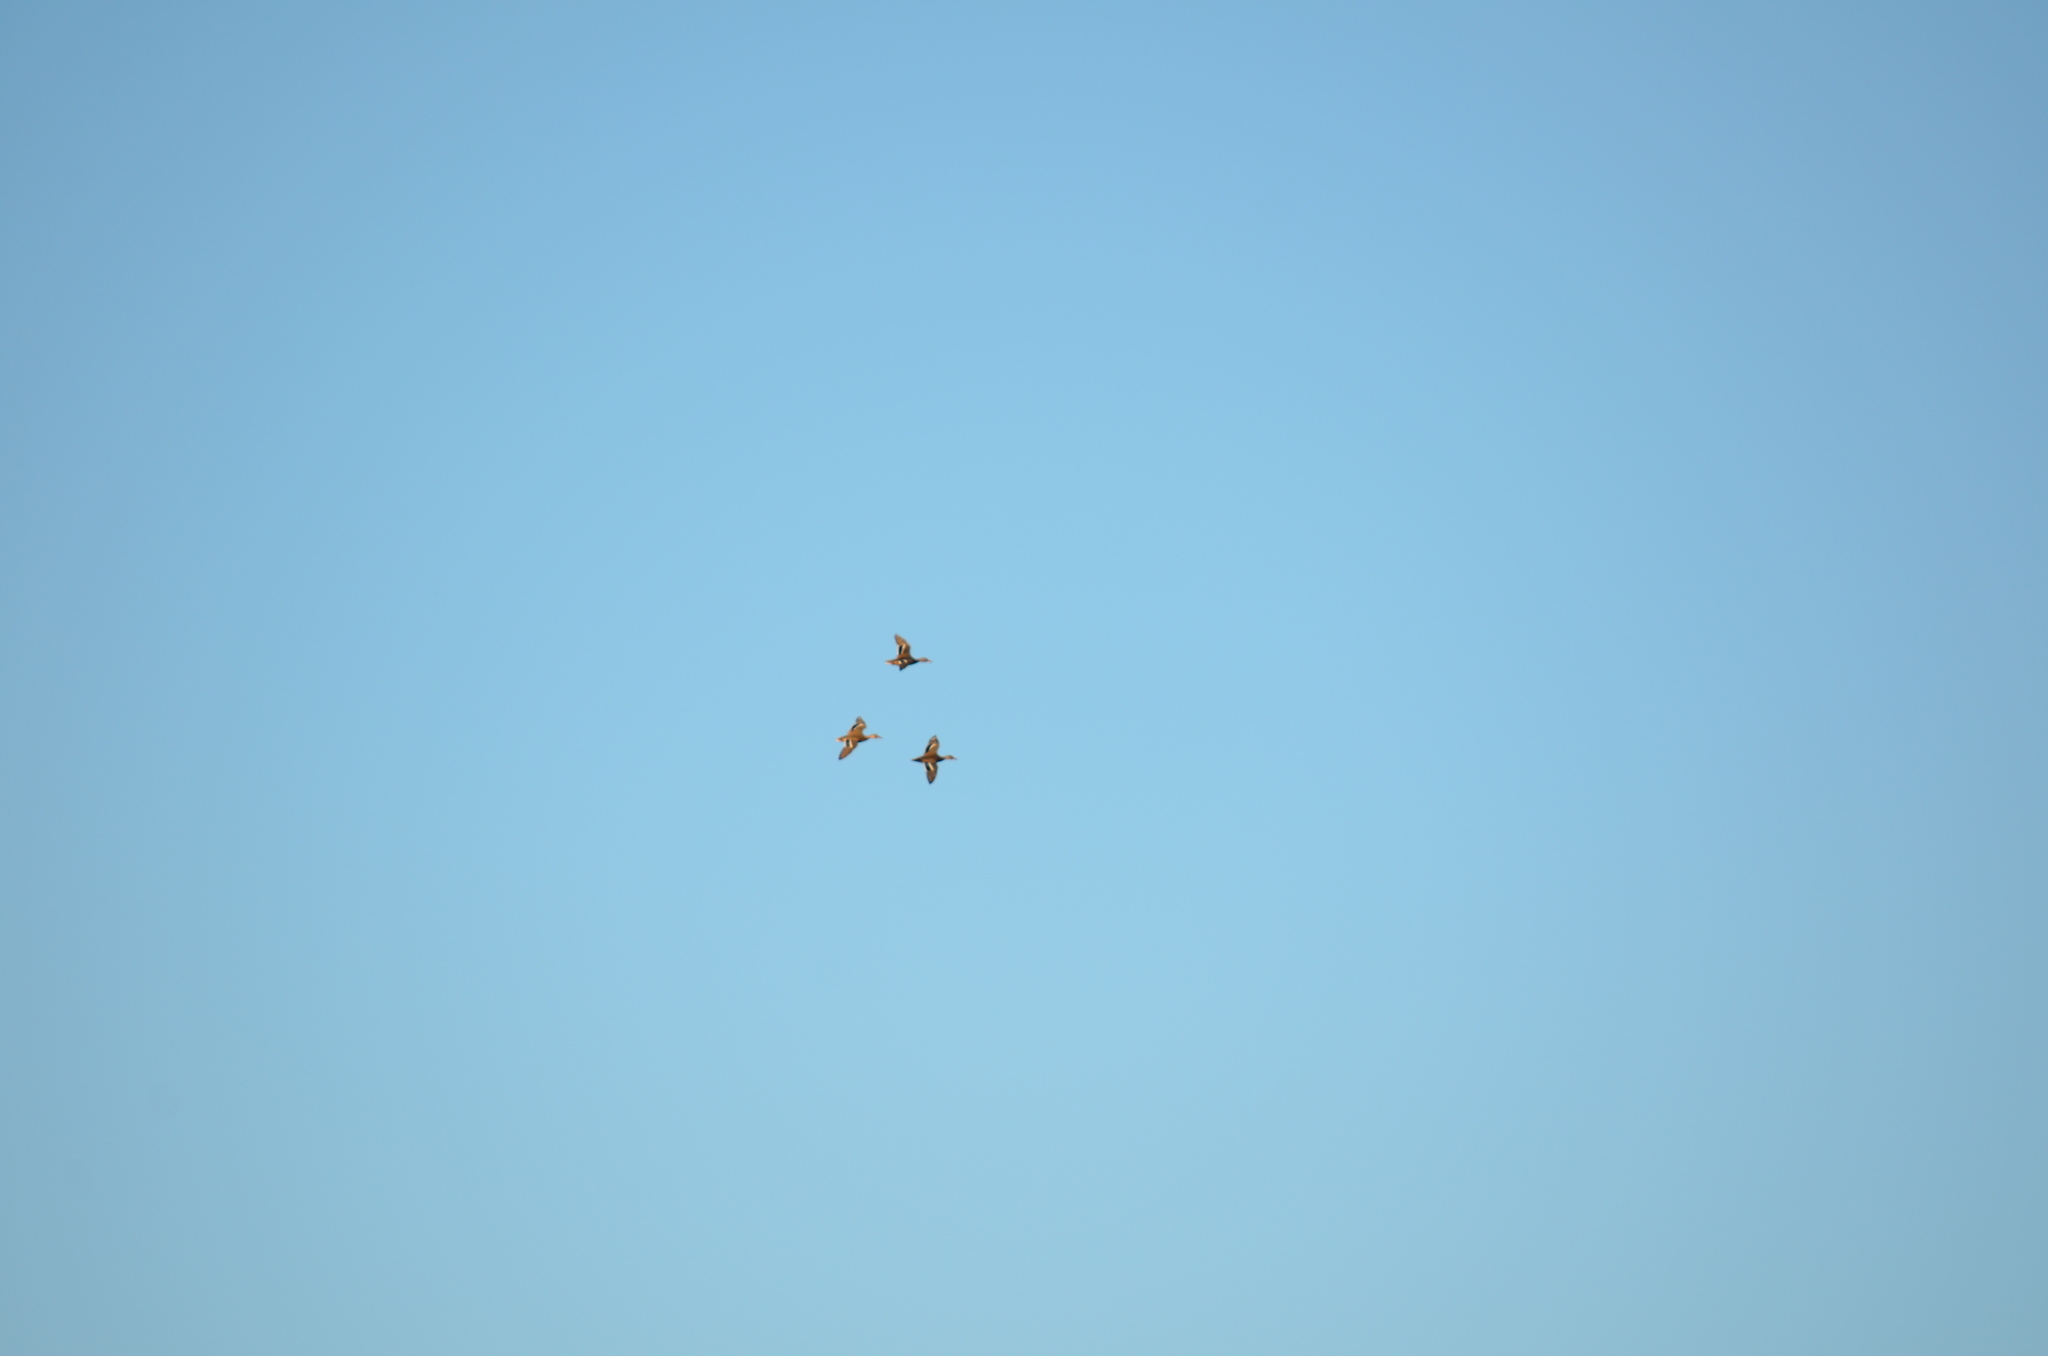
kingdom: Animalia
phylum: Chordata
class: Aves
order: Anseriformes
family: Anatidae
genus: Anas
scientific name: Anas crecca
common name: Eurasian teal
